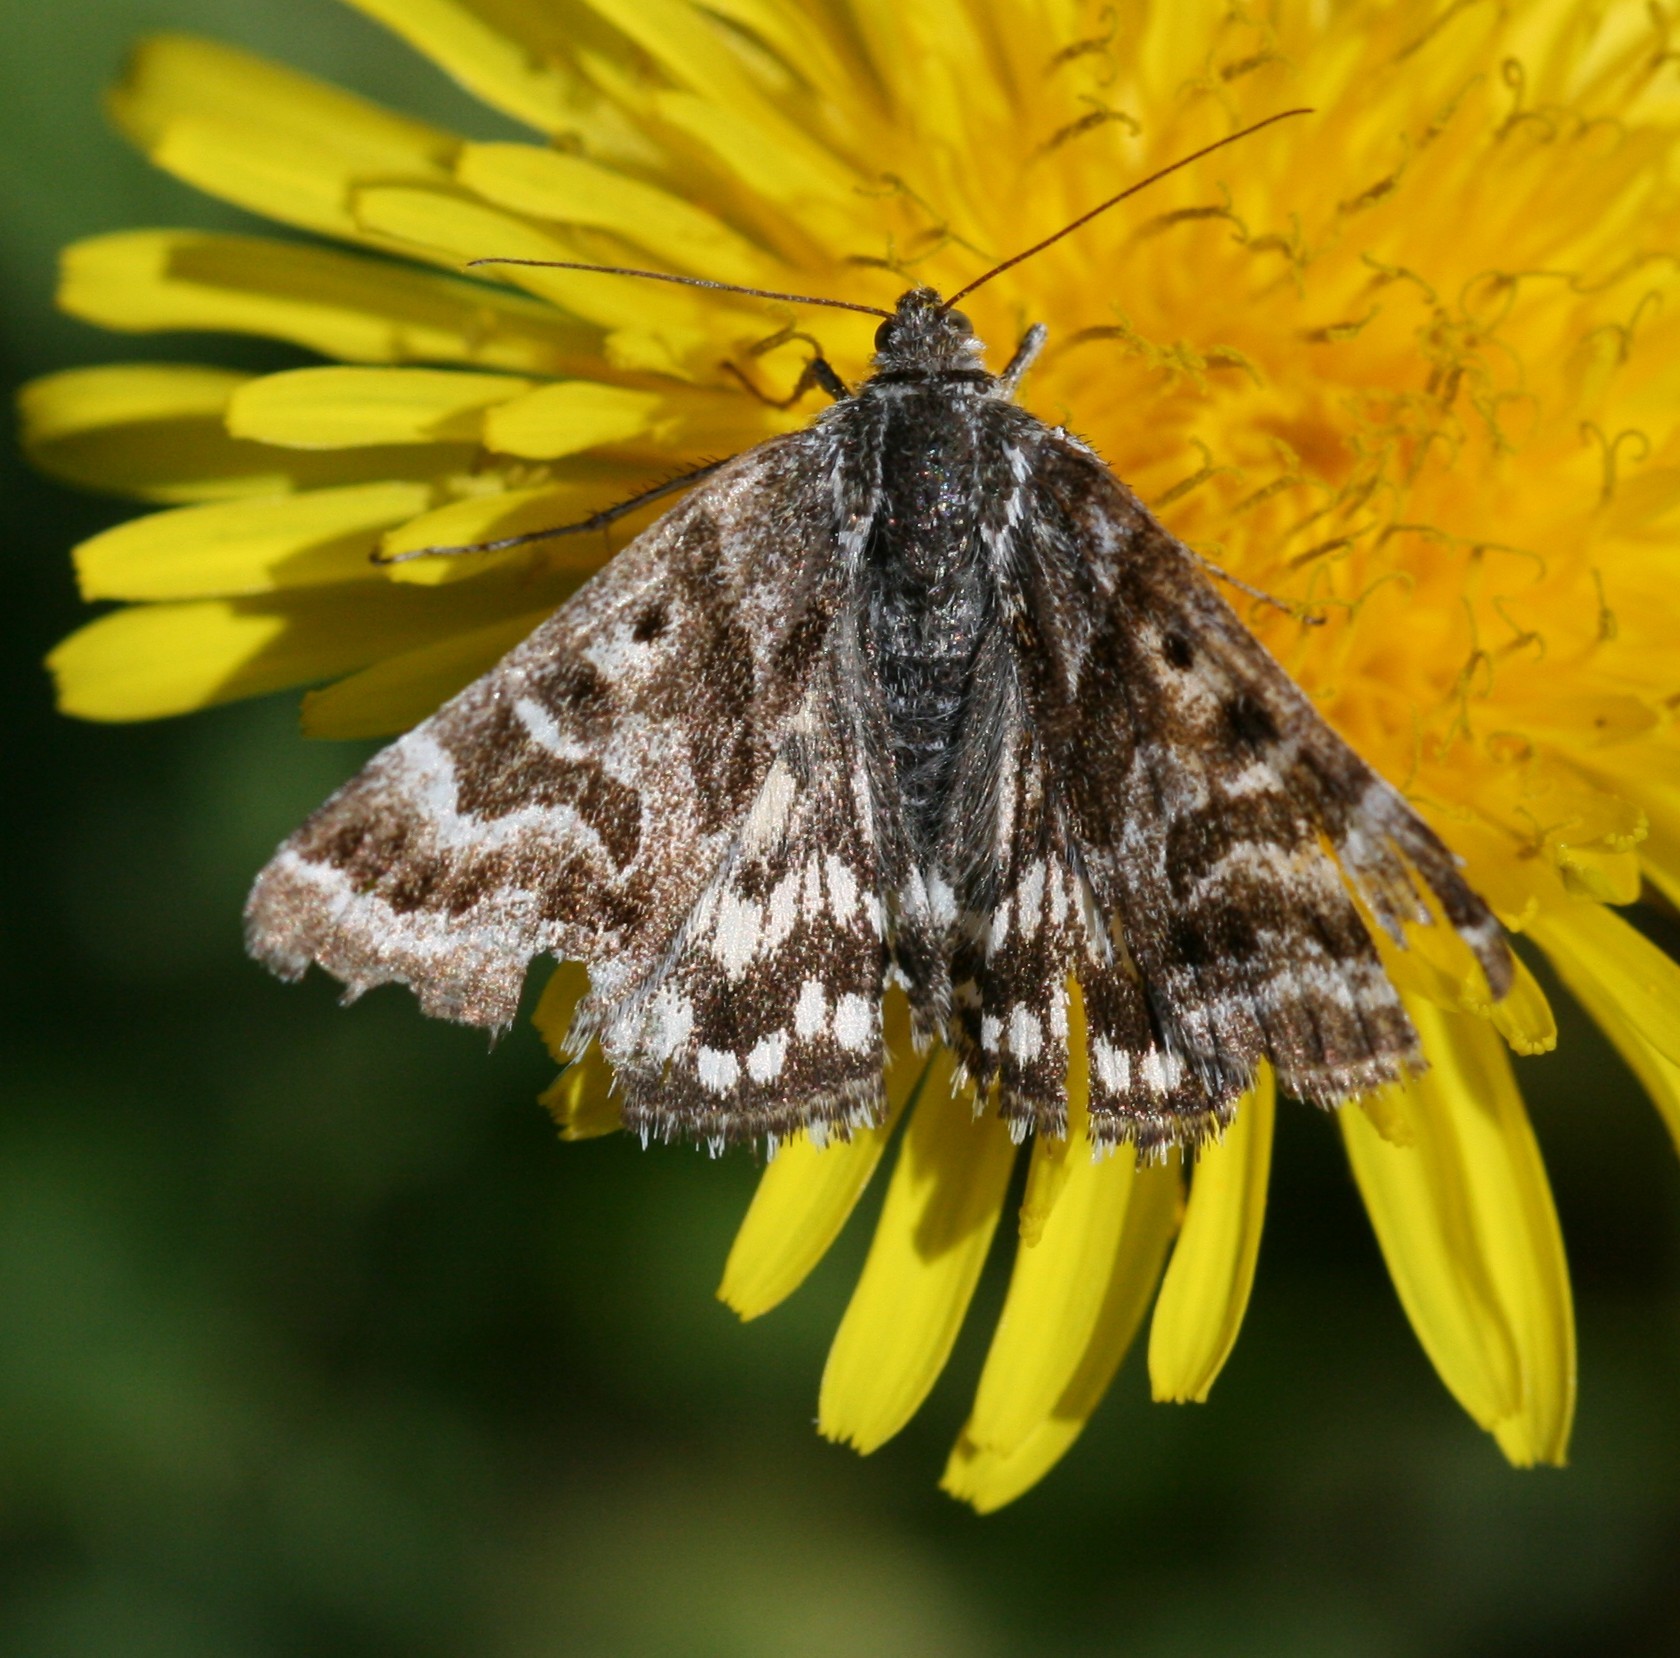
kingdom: Animalia
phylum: Arthropoda
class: Insecta
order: Lepidoptera
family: Erebidae
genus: Callistege
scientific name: Callistege mi
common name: Mother shipton
